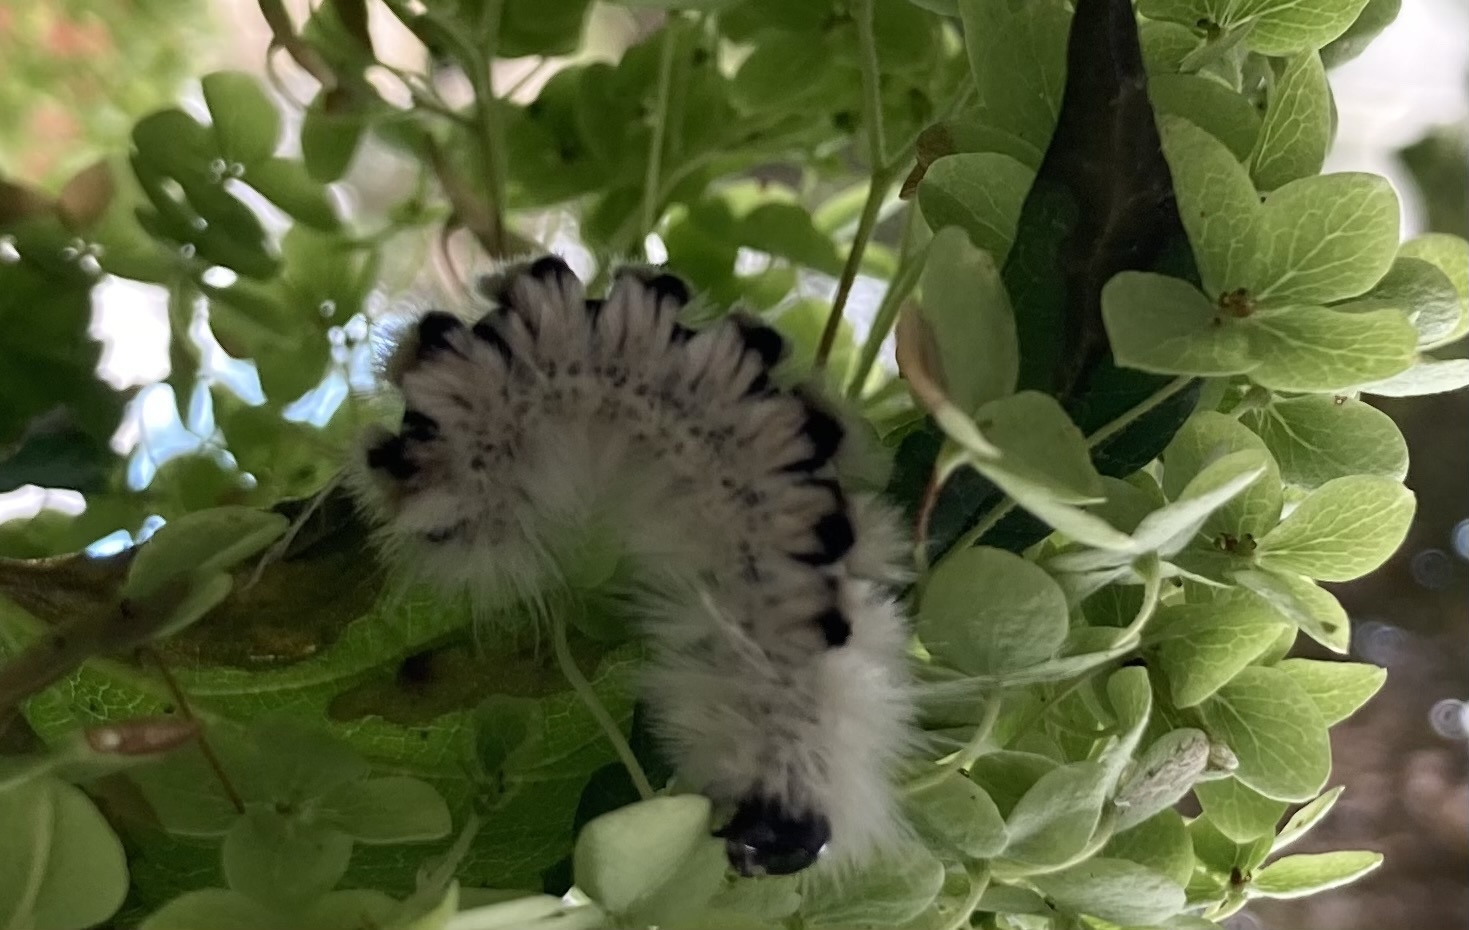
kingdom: Animalia
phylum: Arthropoda
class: Insecta
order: Lepidoptera
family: Erebidae
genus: Lophocampa
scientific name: Lophocampa caryae
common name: Hickory tussock moth
